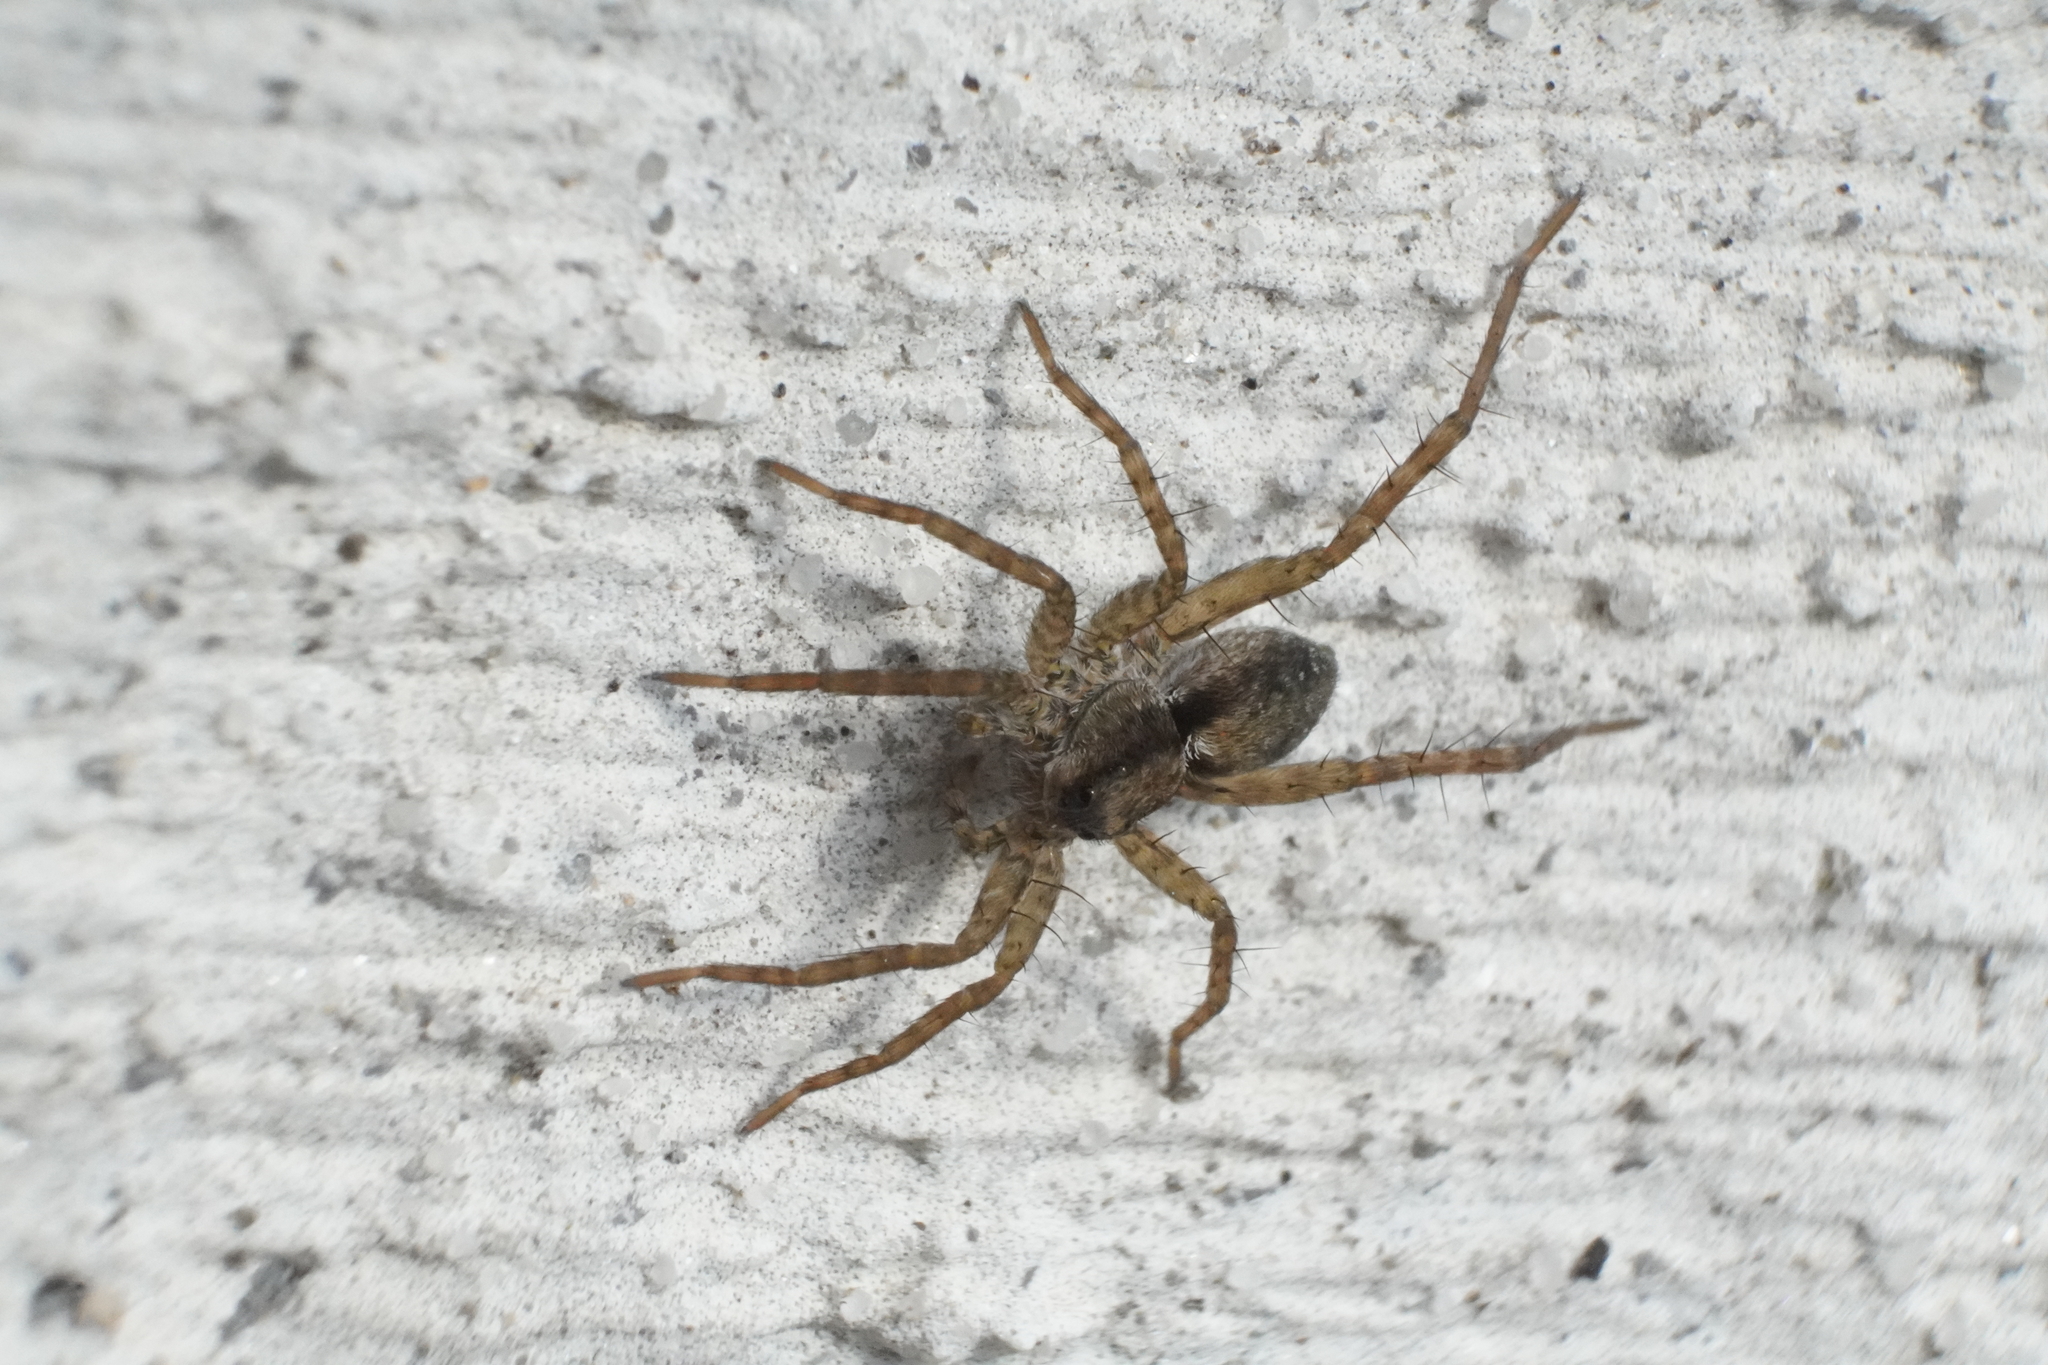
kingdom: Animalia
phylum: Arthropoda
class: Arachnida
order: Araneae
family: Lycosidae
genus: Pardosa
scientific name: Pardosa milvina
